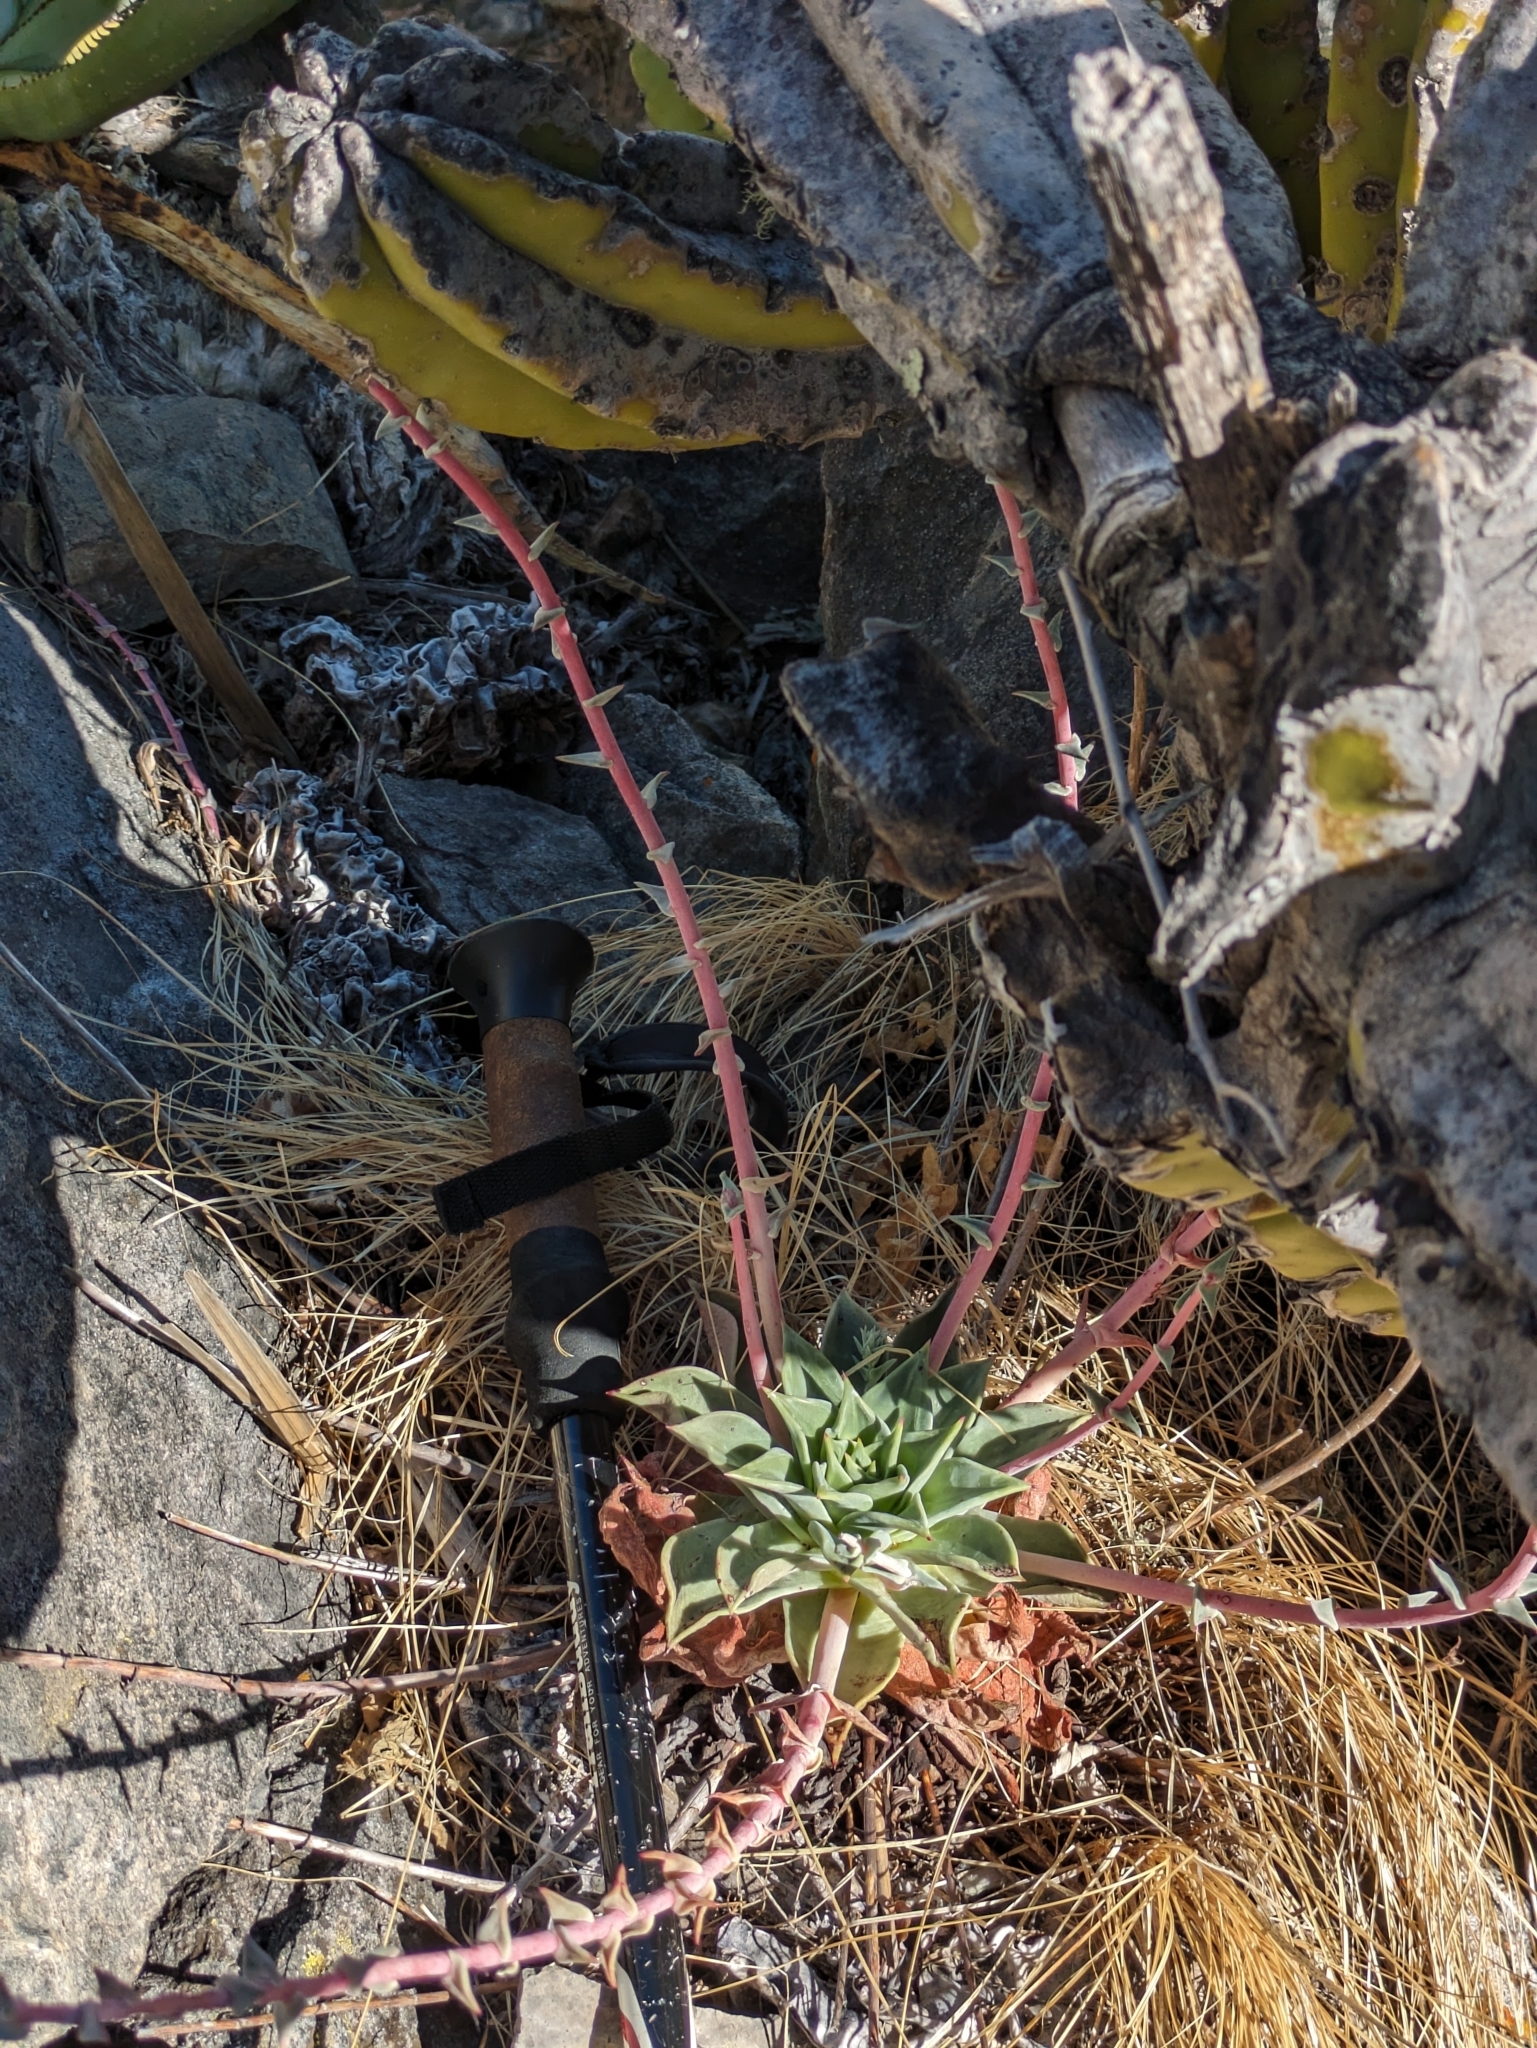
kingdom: Plantae
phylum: Tracheophyta
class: Magnoliopsida
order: Saxifragales
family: Crassulaceae
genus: Dudleya
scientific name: Dudleya rigida
